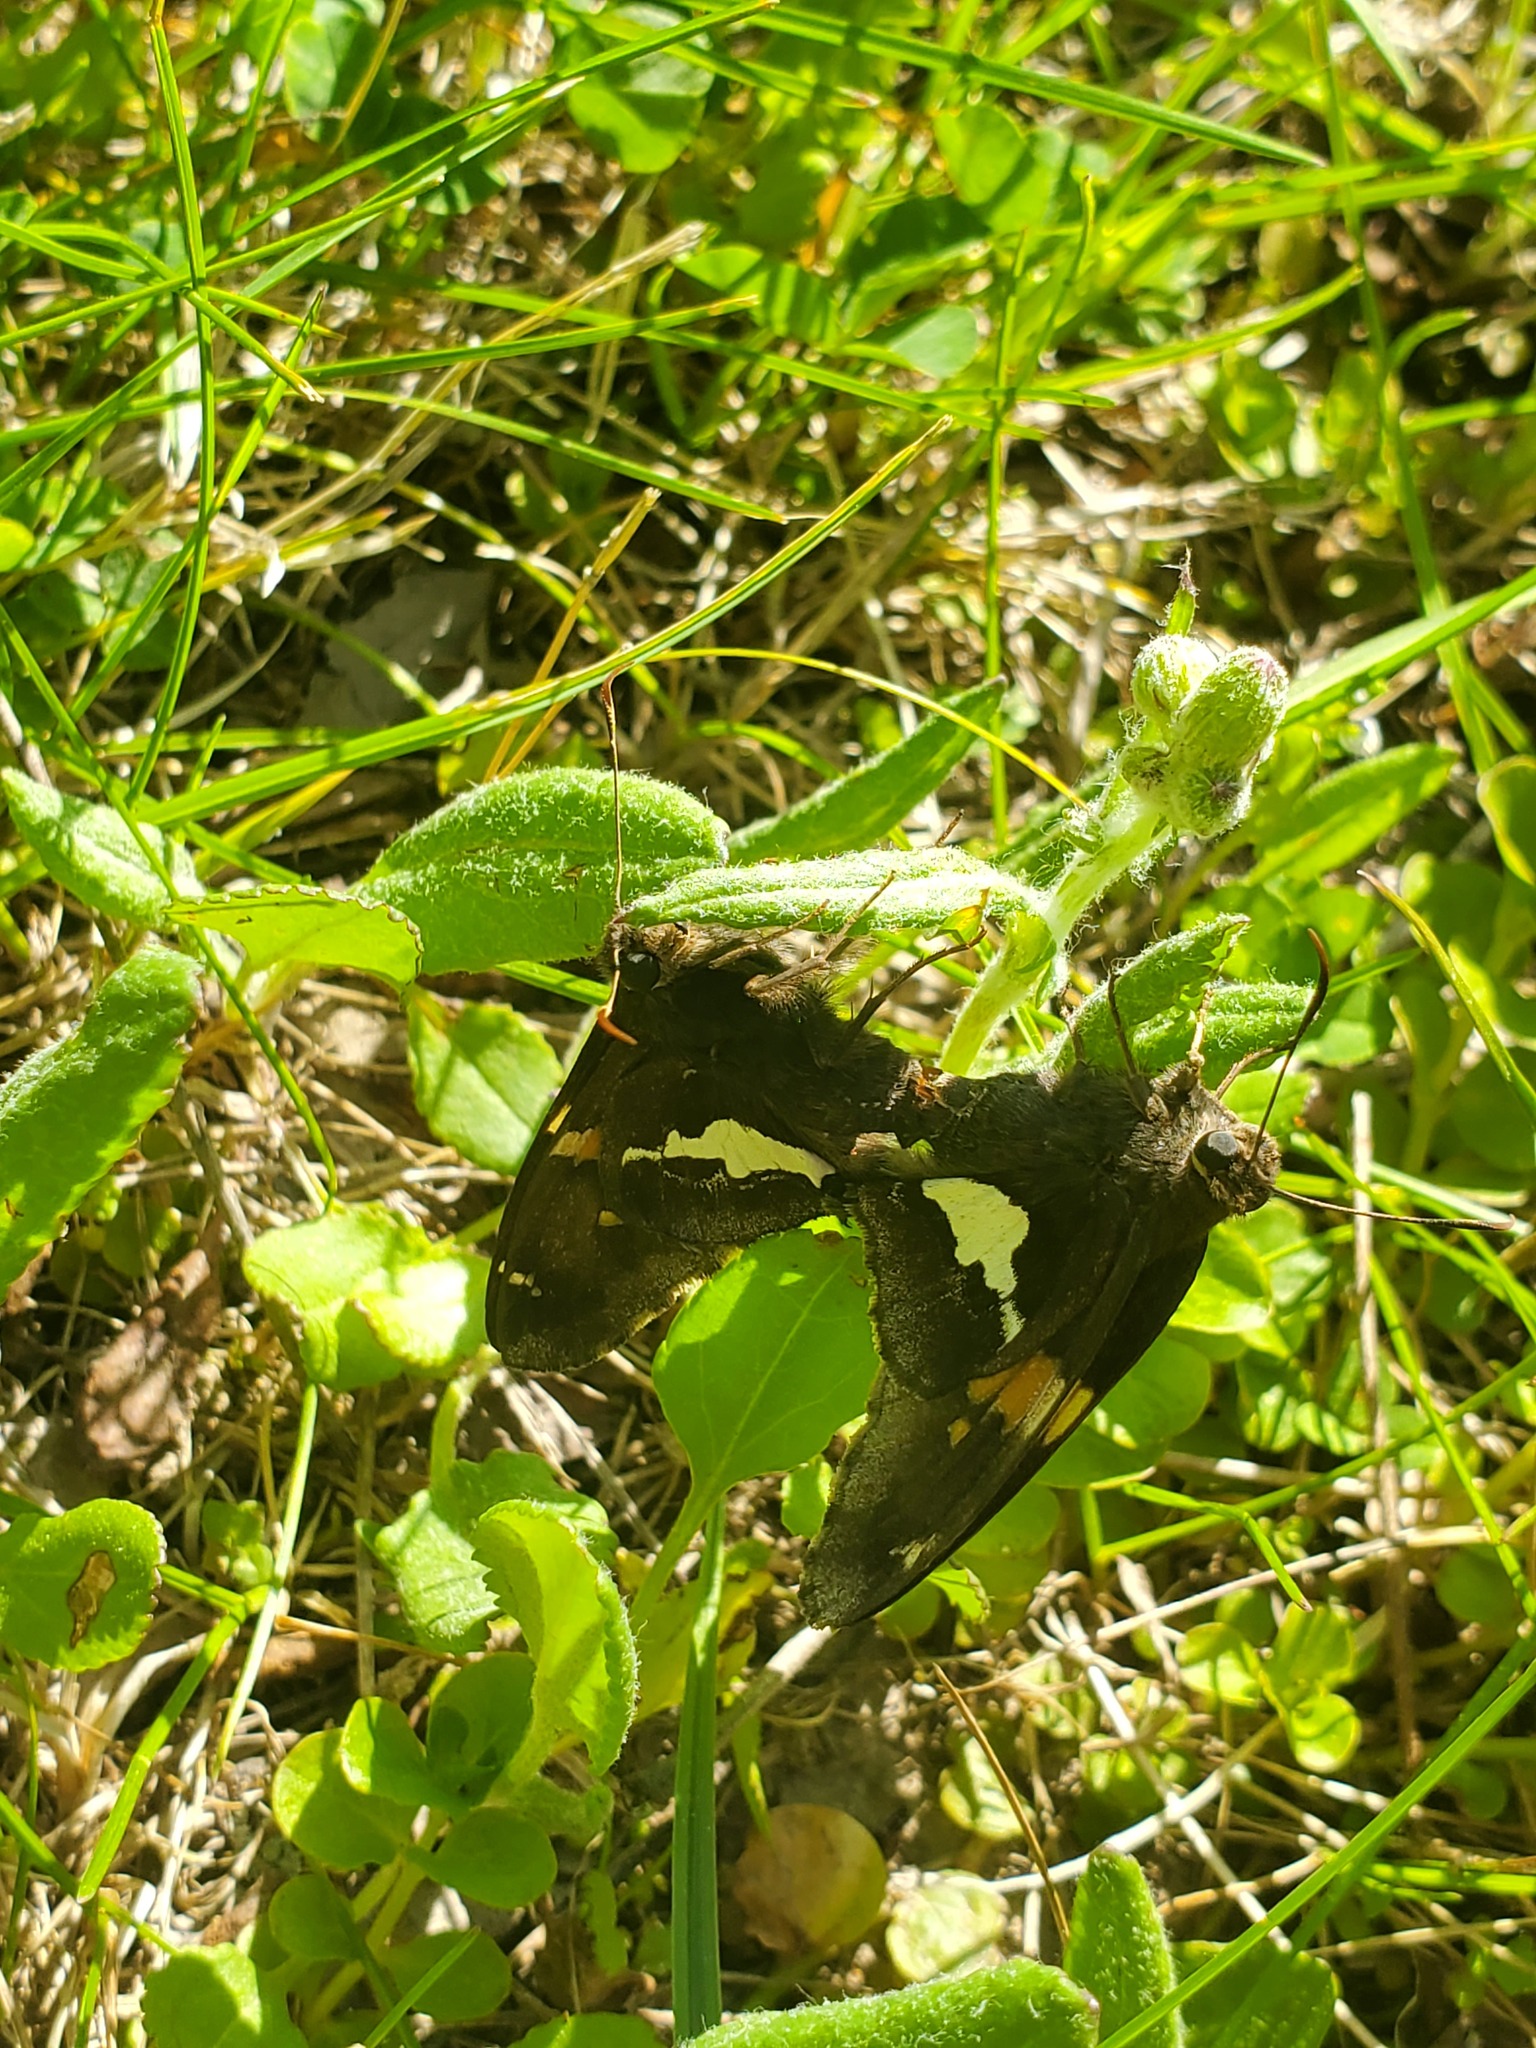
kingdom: Animalia
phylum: Arthropoda
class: Insecta
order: Lepidoptera
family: Hesperiidae
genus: Epargyreus
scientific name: Epargyreus clarus
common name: Silver-spotted skipper
